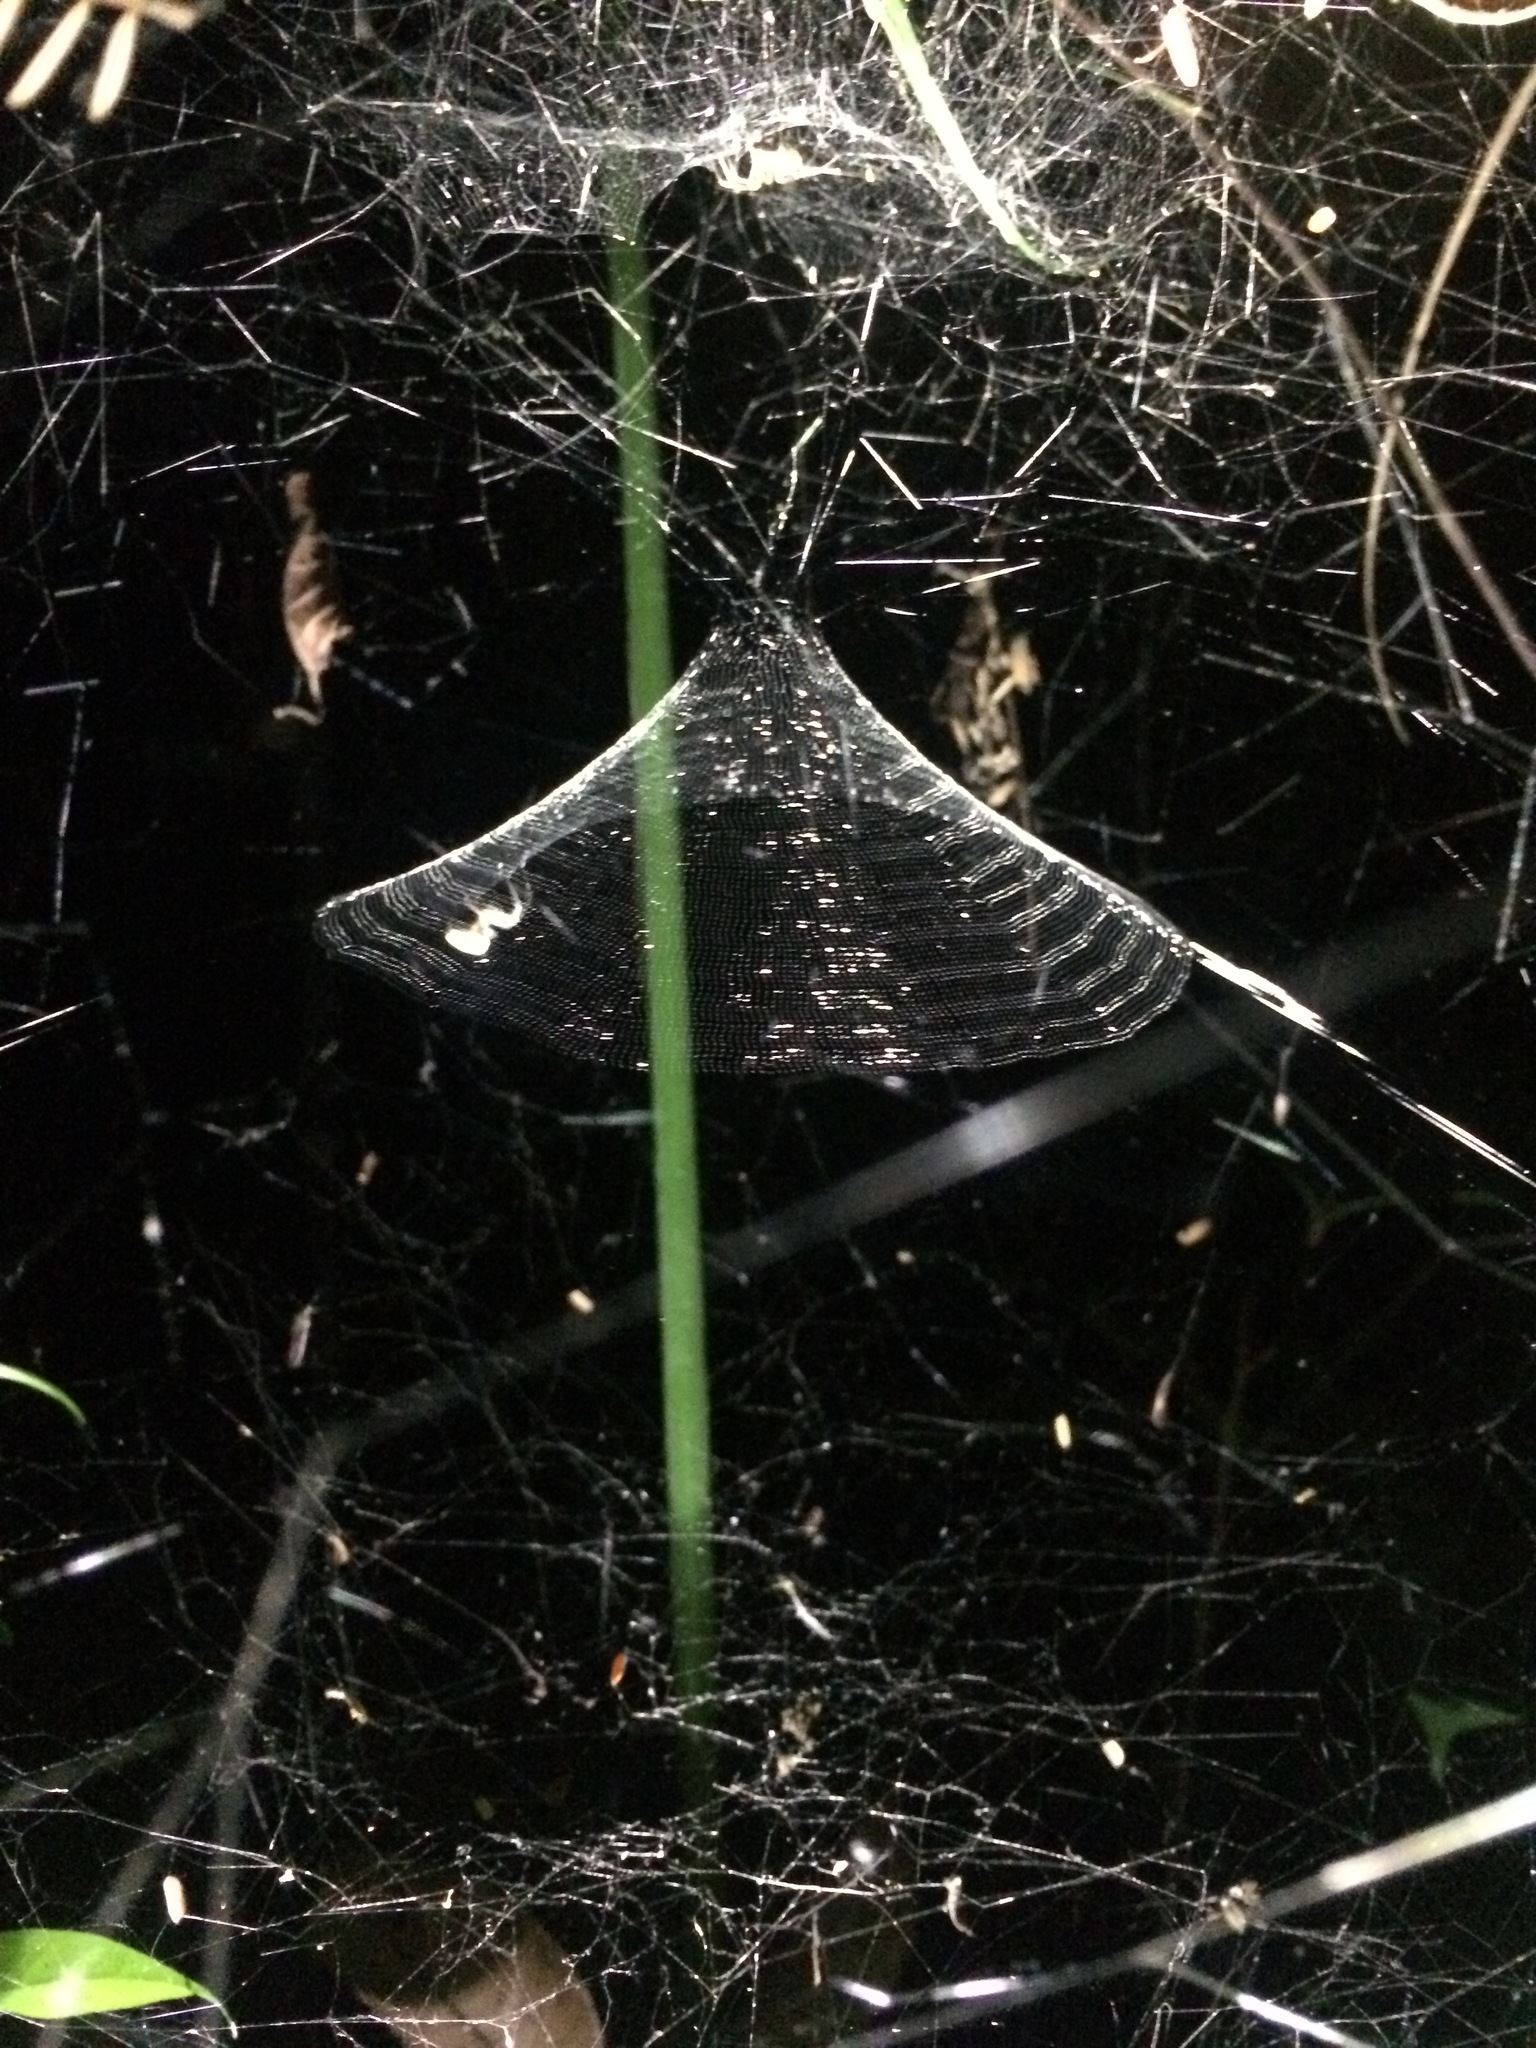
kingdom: Animalia
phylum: Arthropoda
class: Arachnida
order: Araneae
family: Araneidae
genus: Manogea
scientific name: Manogea porracea
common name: Orb weavers
